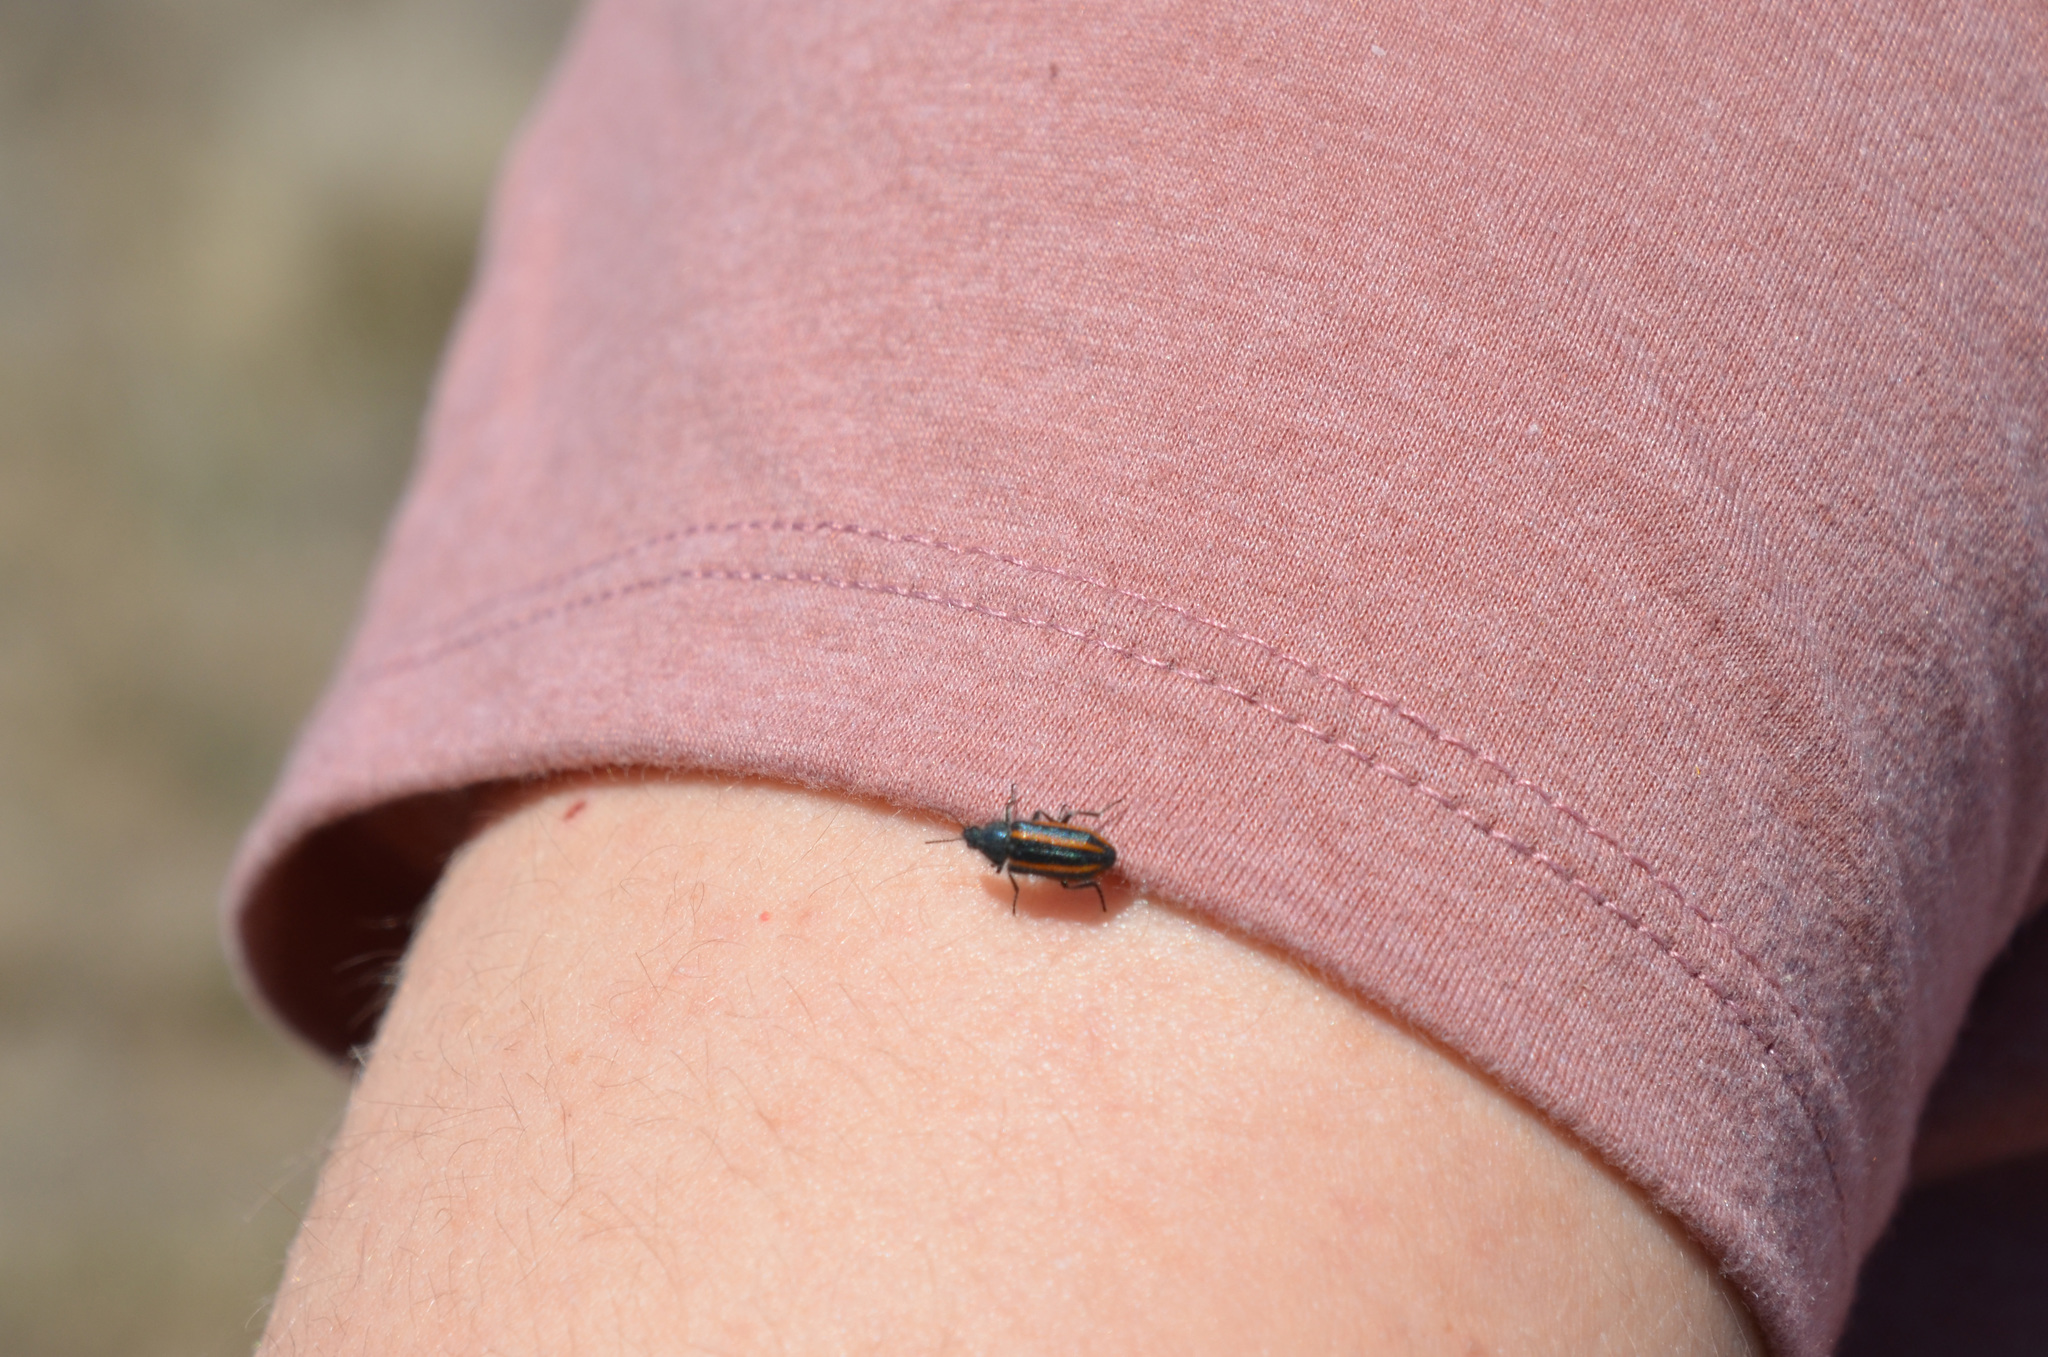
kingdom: Animalia
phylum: Arthropoda
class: Insecta
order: Coleoptera
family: Melyridae
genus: Astylus
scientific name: Astylus
